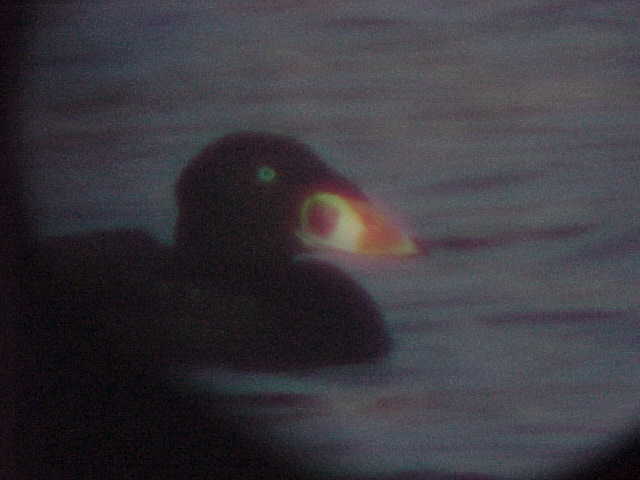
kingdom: Animalia
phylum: Chordata
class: Aves
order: Anseriformes
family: Anatidae
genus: Melanitta
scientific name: Melanitta perspicillata
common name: Surf scoter
